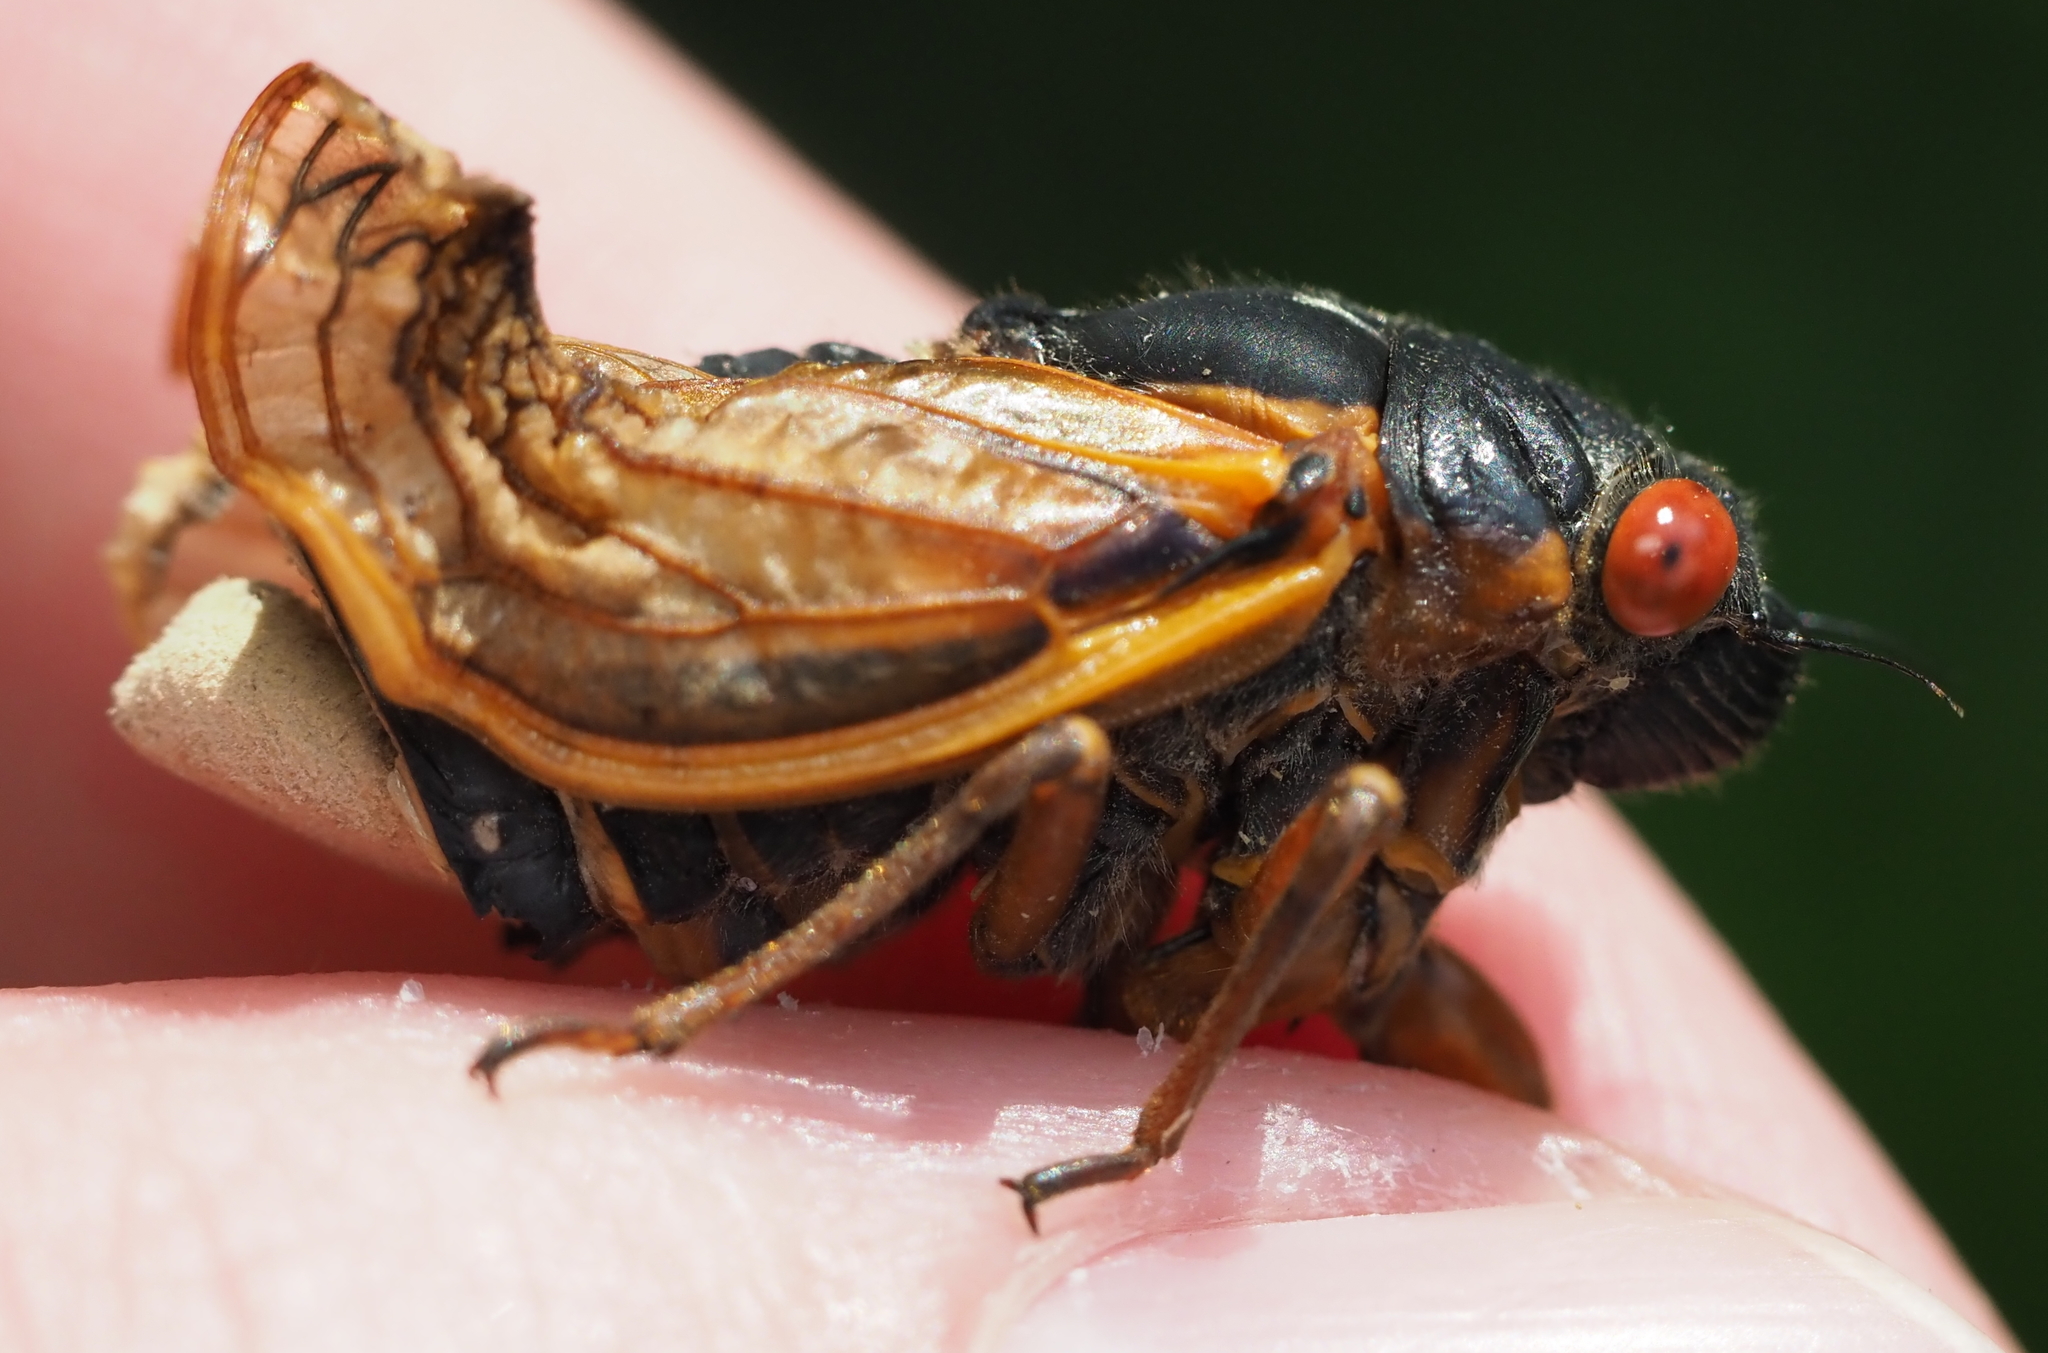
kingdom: Animalia
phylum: Arthropoda
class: Insecta
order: Hemiptera
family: Cicadidae
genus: Magicicada
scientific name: Magicicada septendecim
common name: Periodical cicada
